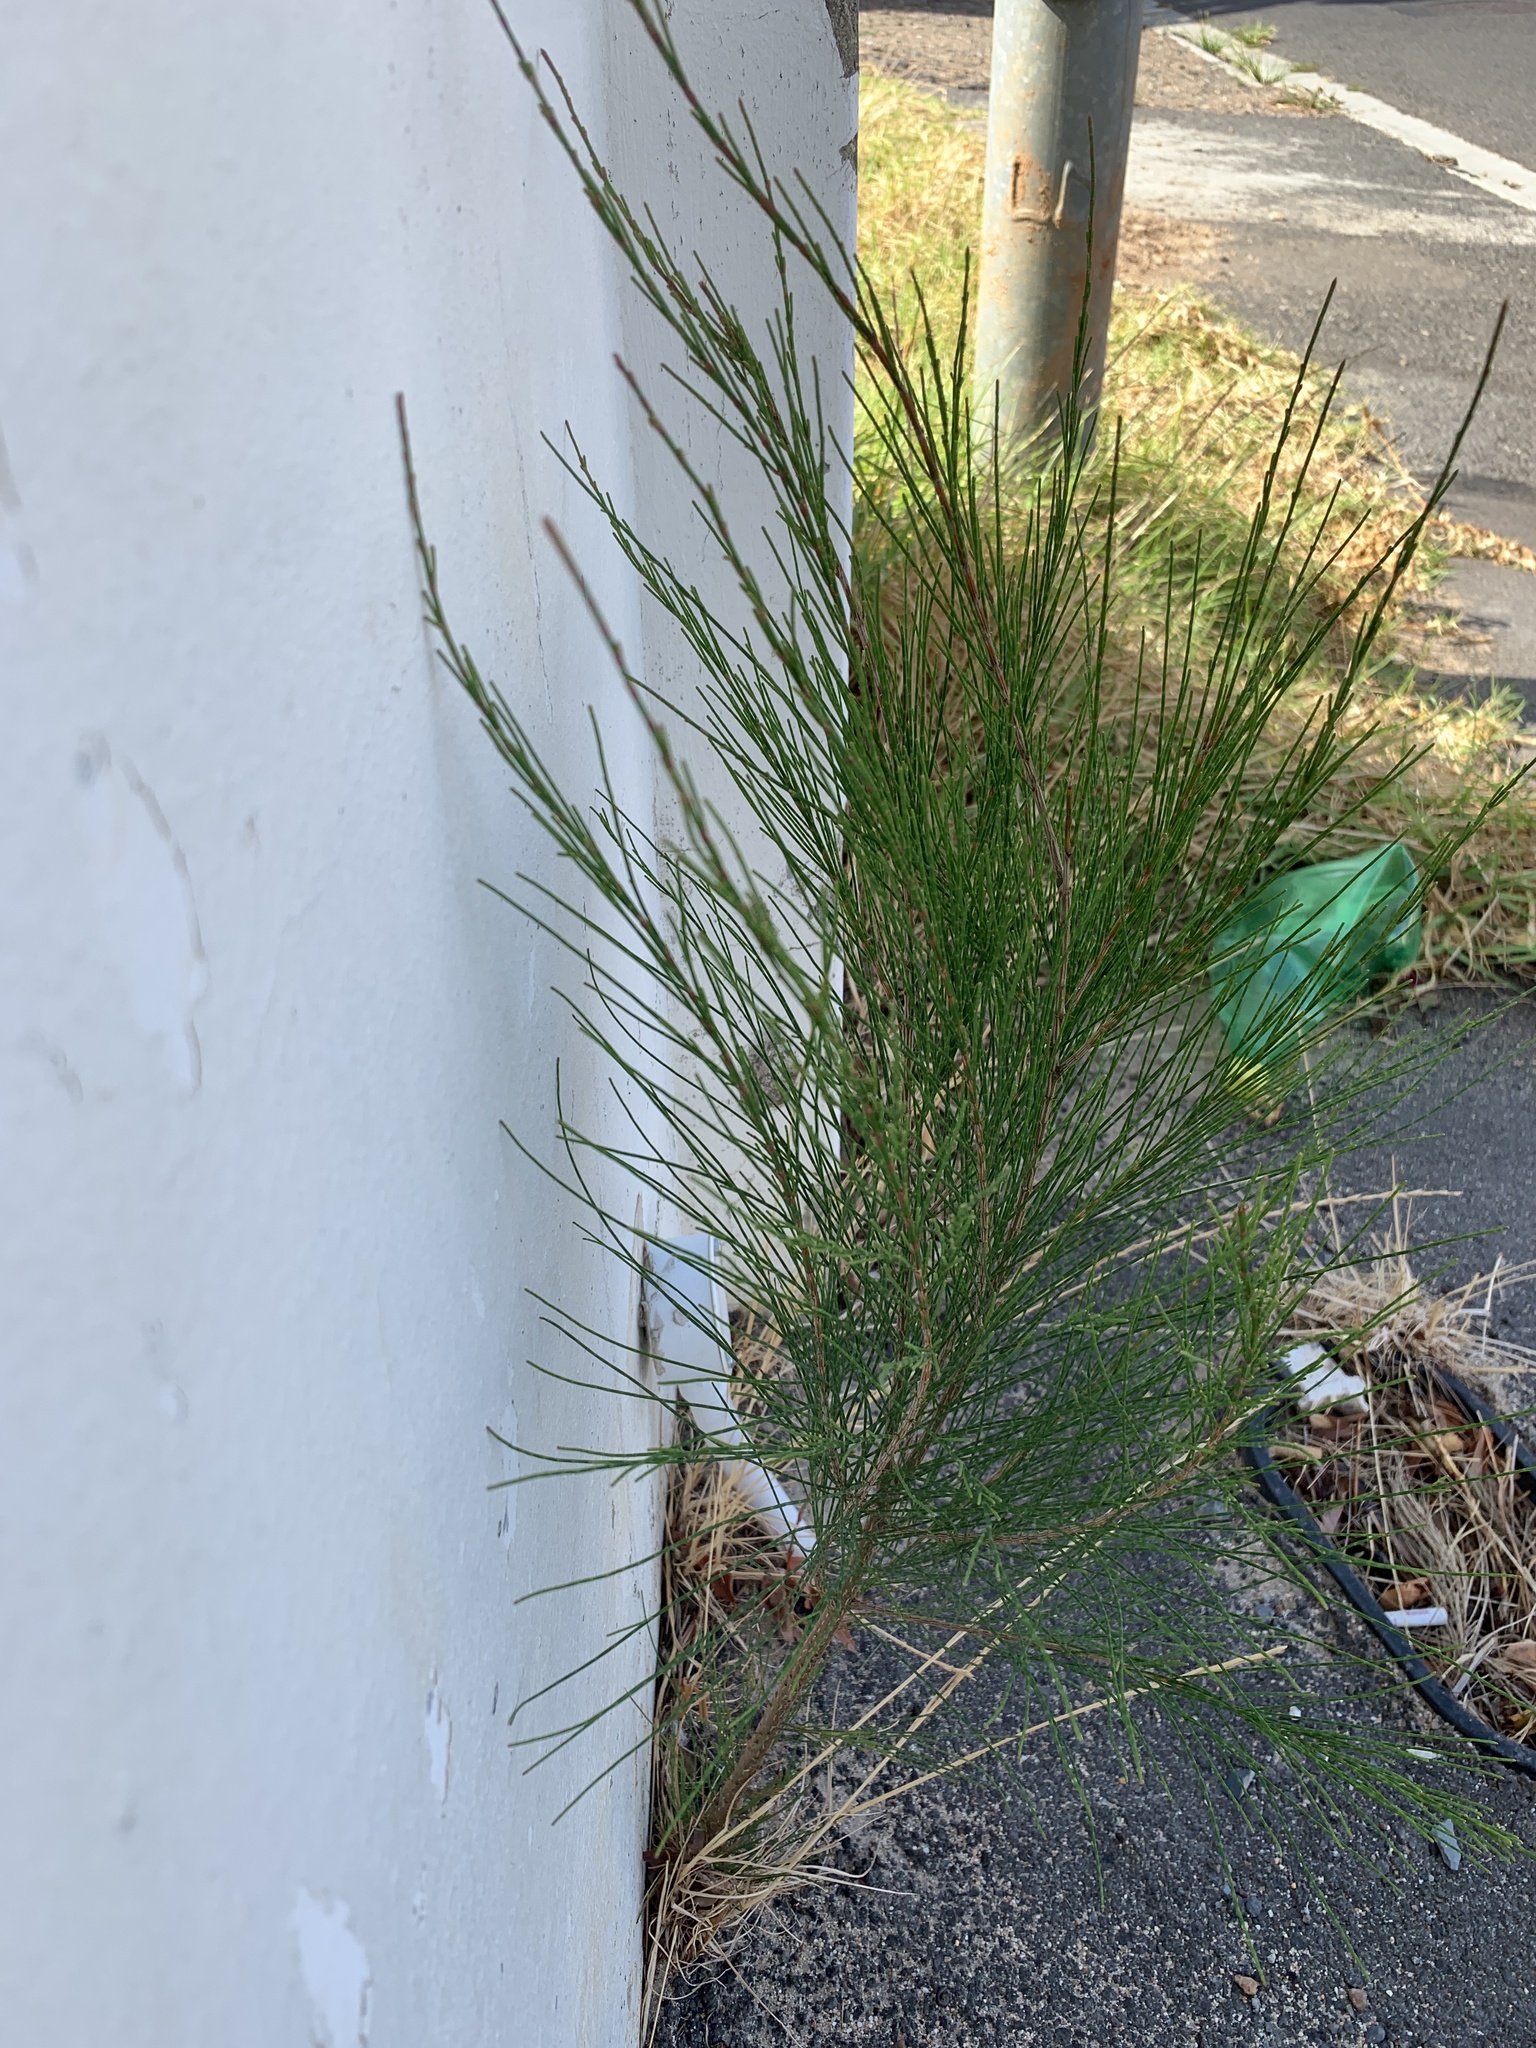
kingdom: Plantae
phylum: Tracheophyta
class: Magnoliopsida
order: Fagales
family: Casuarinaceae
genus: Casuarina
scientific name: Casuarina cunninghamiana
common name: River sheoak
